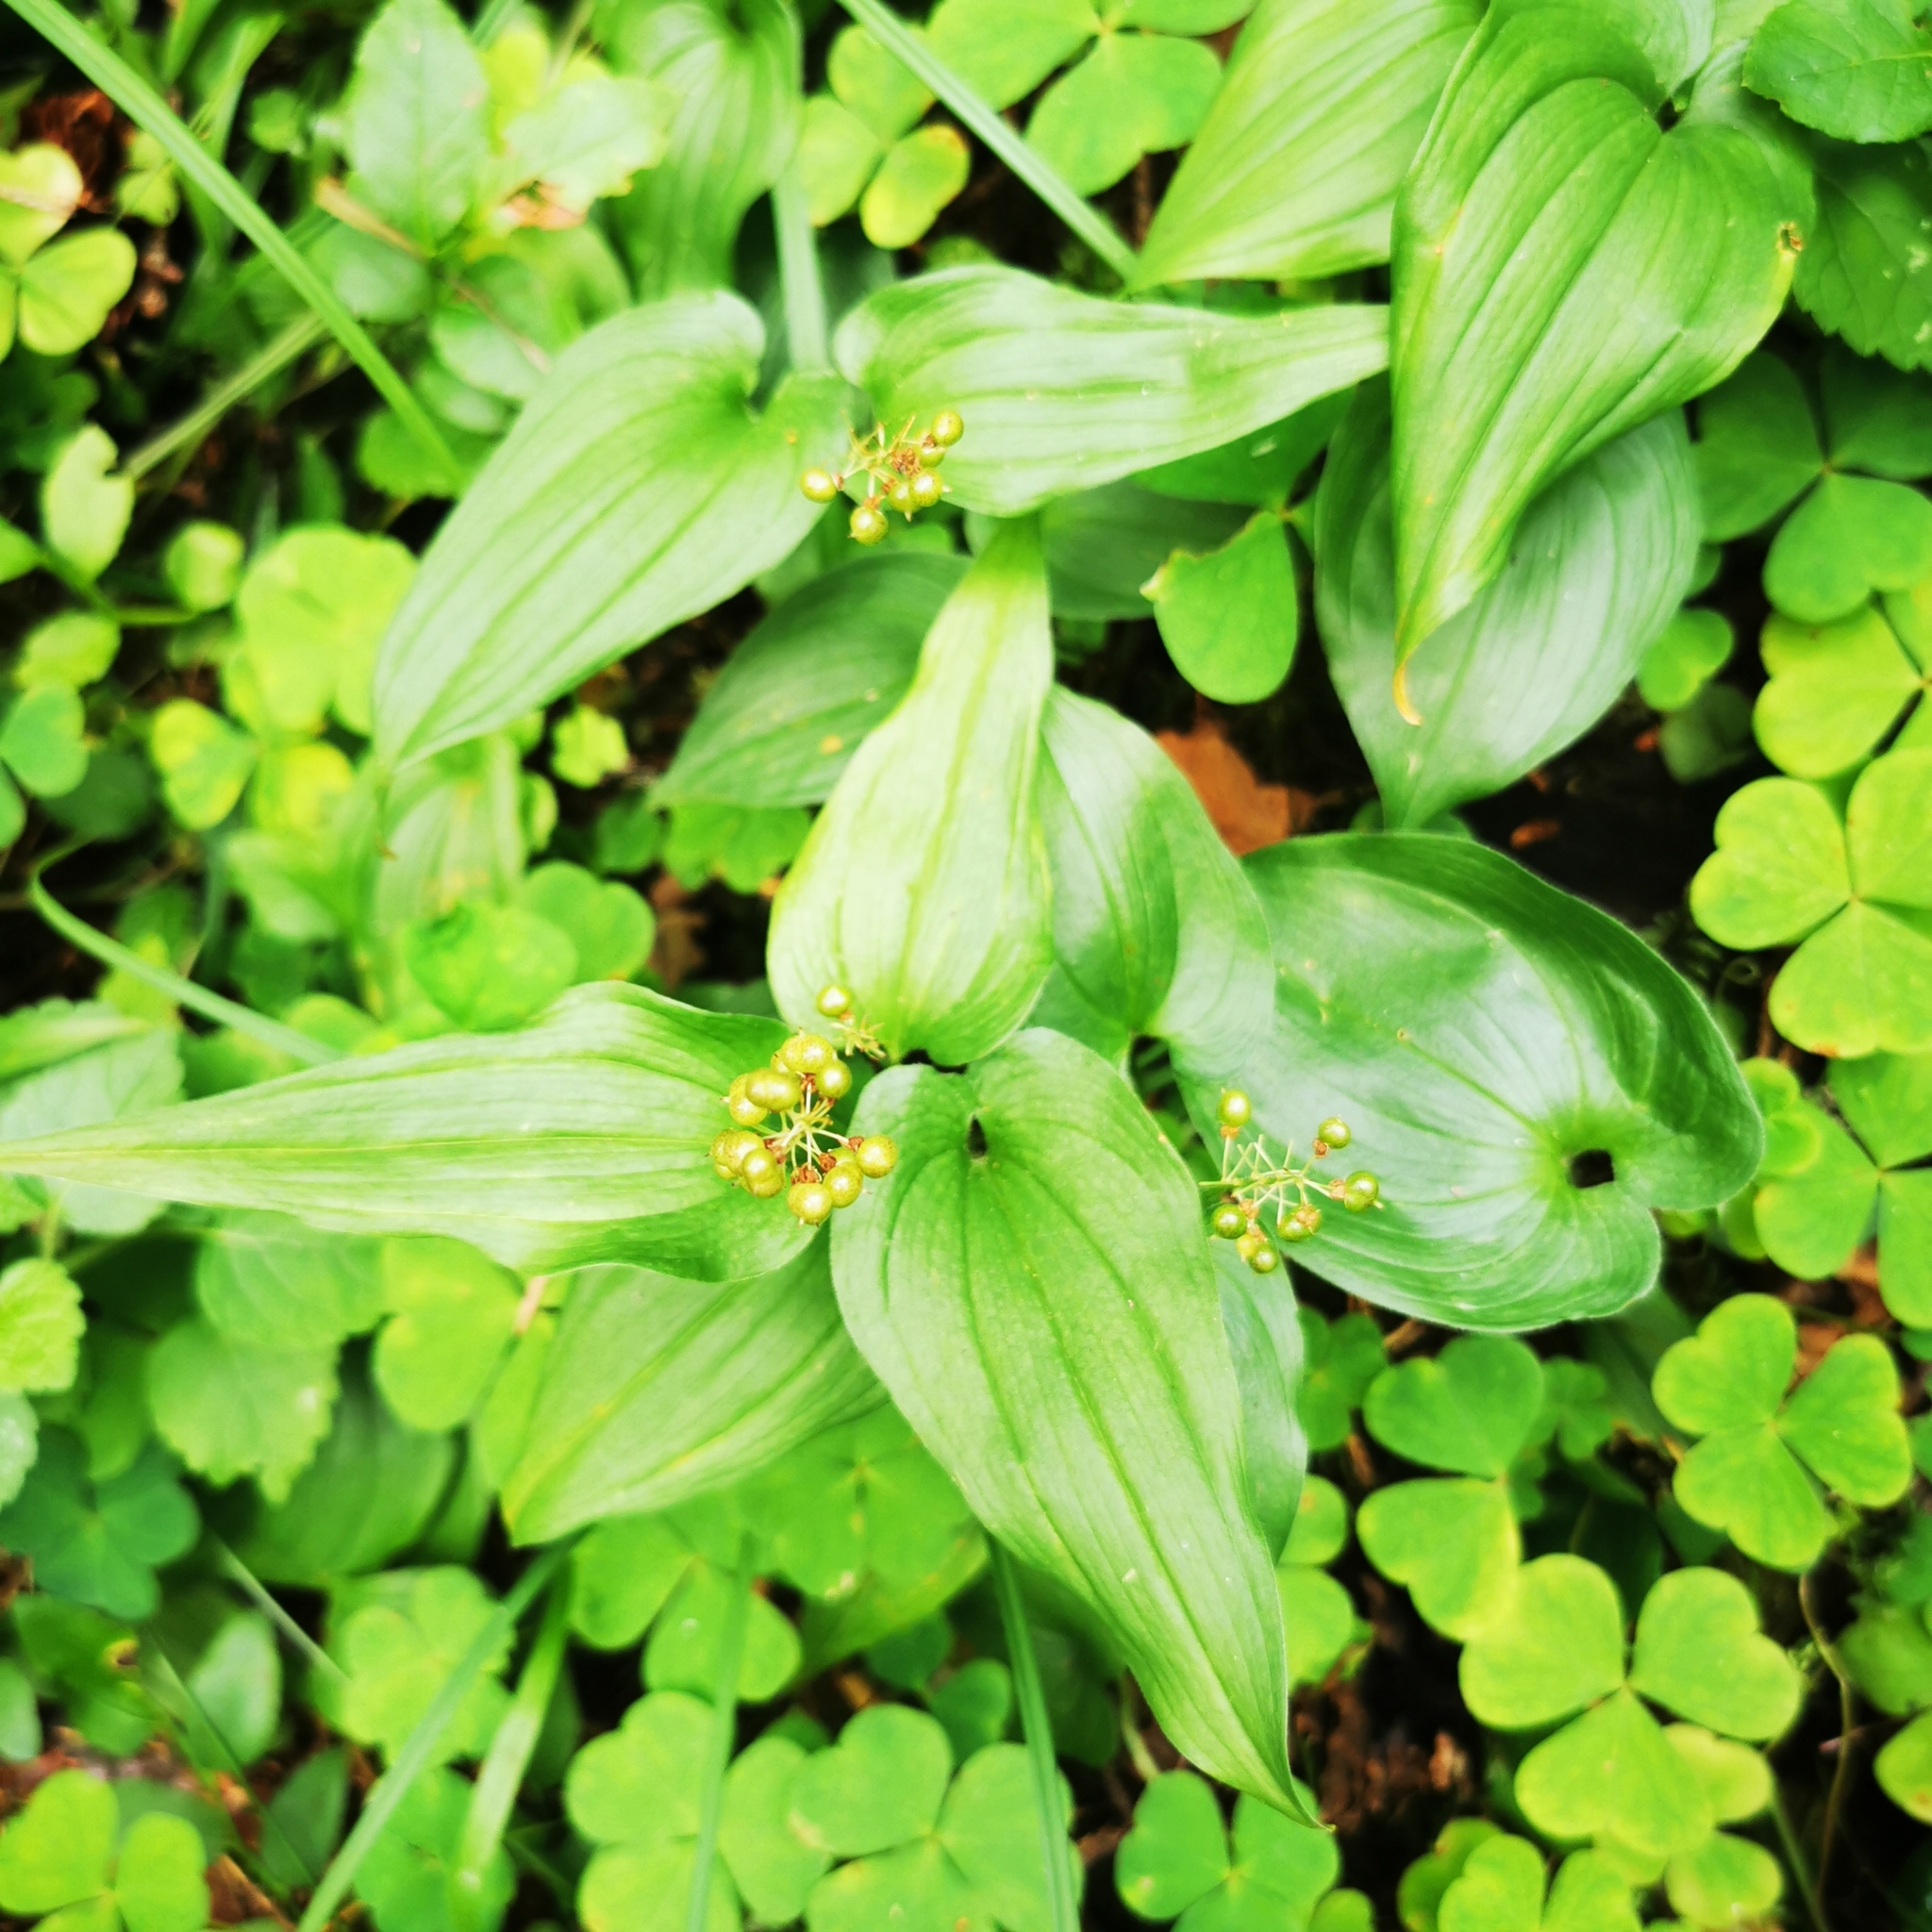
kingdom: Plantae
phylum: Tracheophyta
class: Liliopsida
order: Asparagales
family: Asparagaceae
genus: Maianthemum
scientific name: Maianthemum bifolium
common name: May lily
